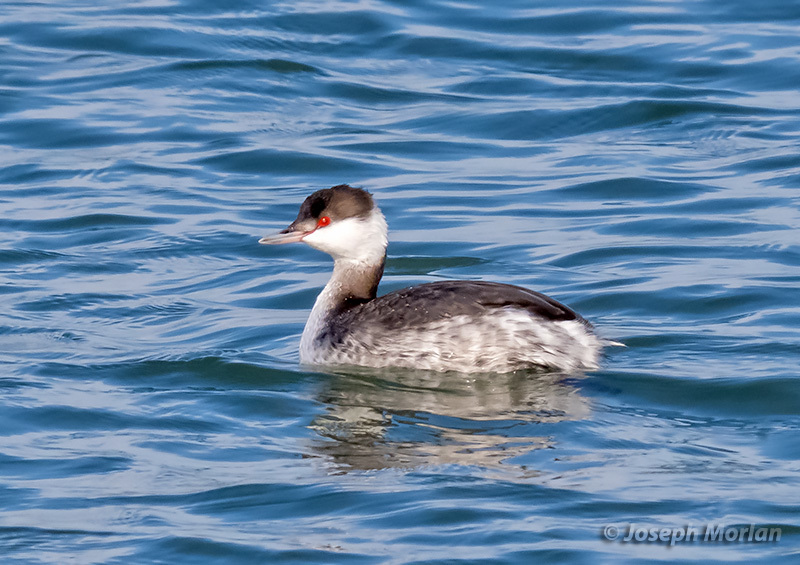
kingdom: Animalia
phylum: Chordata
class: Aves
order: Podicipediformes
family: Podicipedidae
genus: Podiceps
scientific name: Podiceps auritus
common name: Horned grebe
